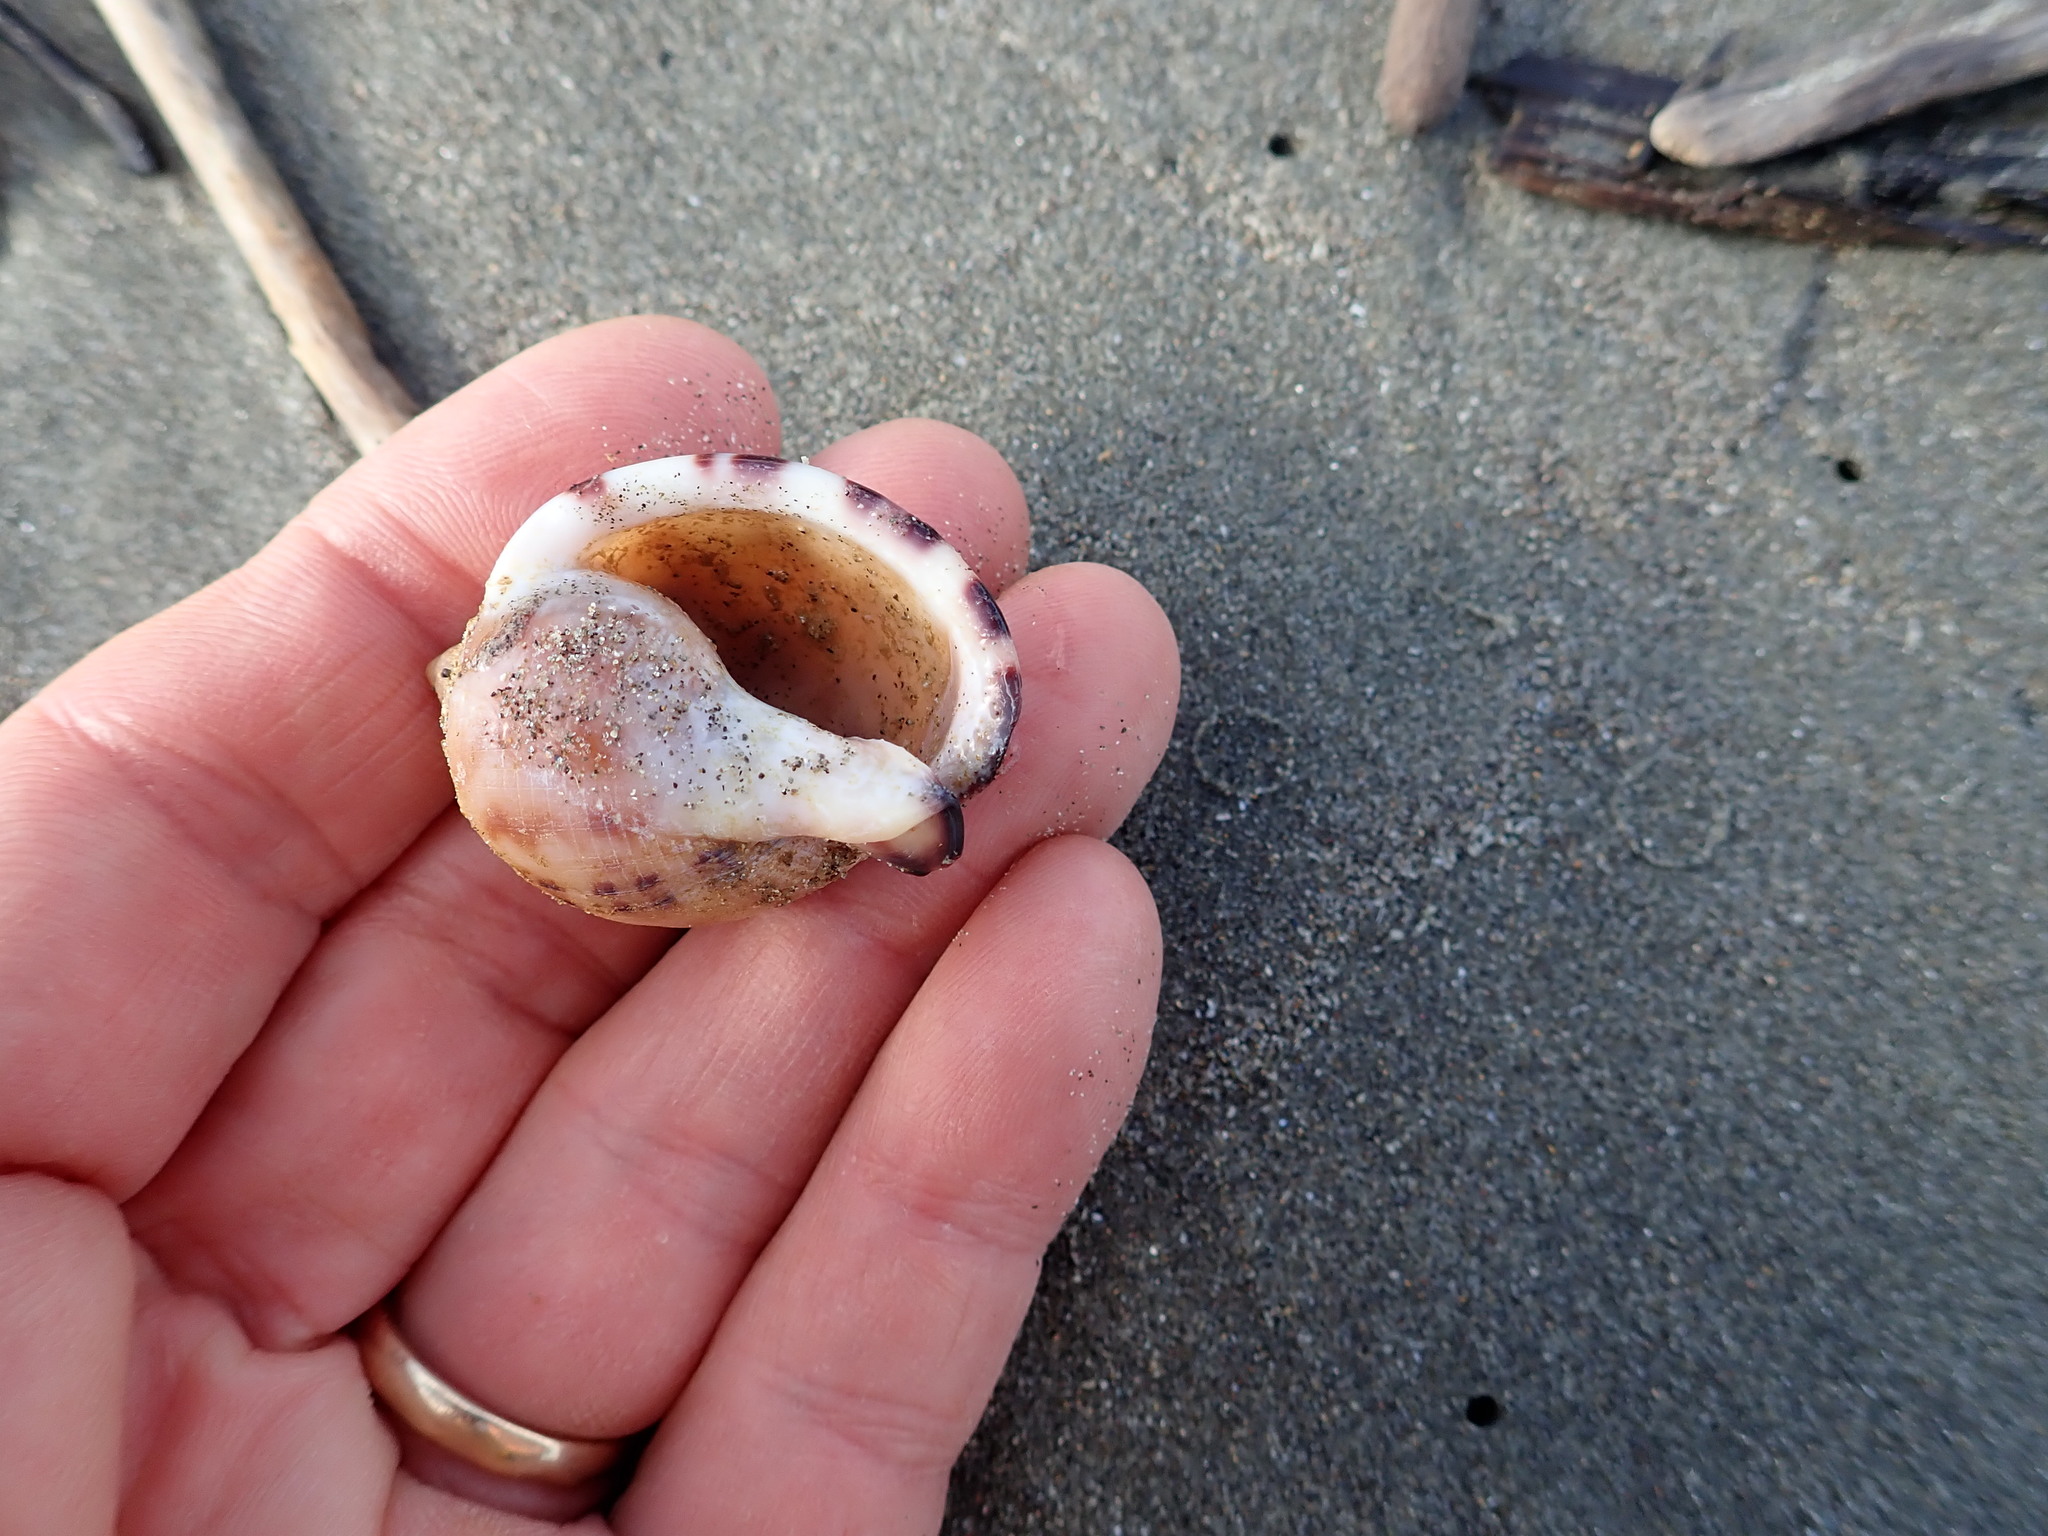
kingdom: Animalia
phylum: Mollusca
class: Gastropoda
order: Littorinimorpha
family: Cassidae
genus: Semicassis
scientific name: Semicassis pyrum
